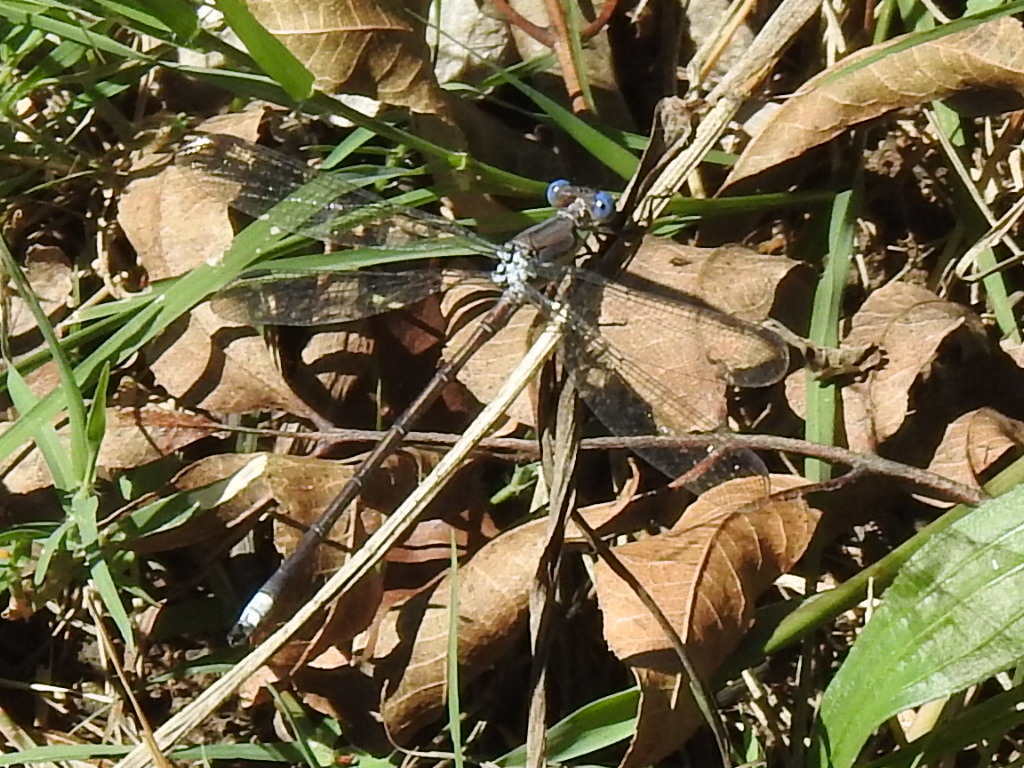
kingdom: Animalia
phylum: Arthropoda
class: Insecta
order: Odonata
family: Lestidae
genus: Archilestes
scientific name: Archilestes grandis
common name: Great spreadwing
